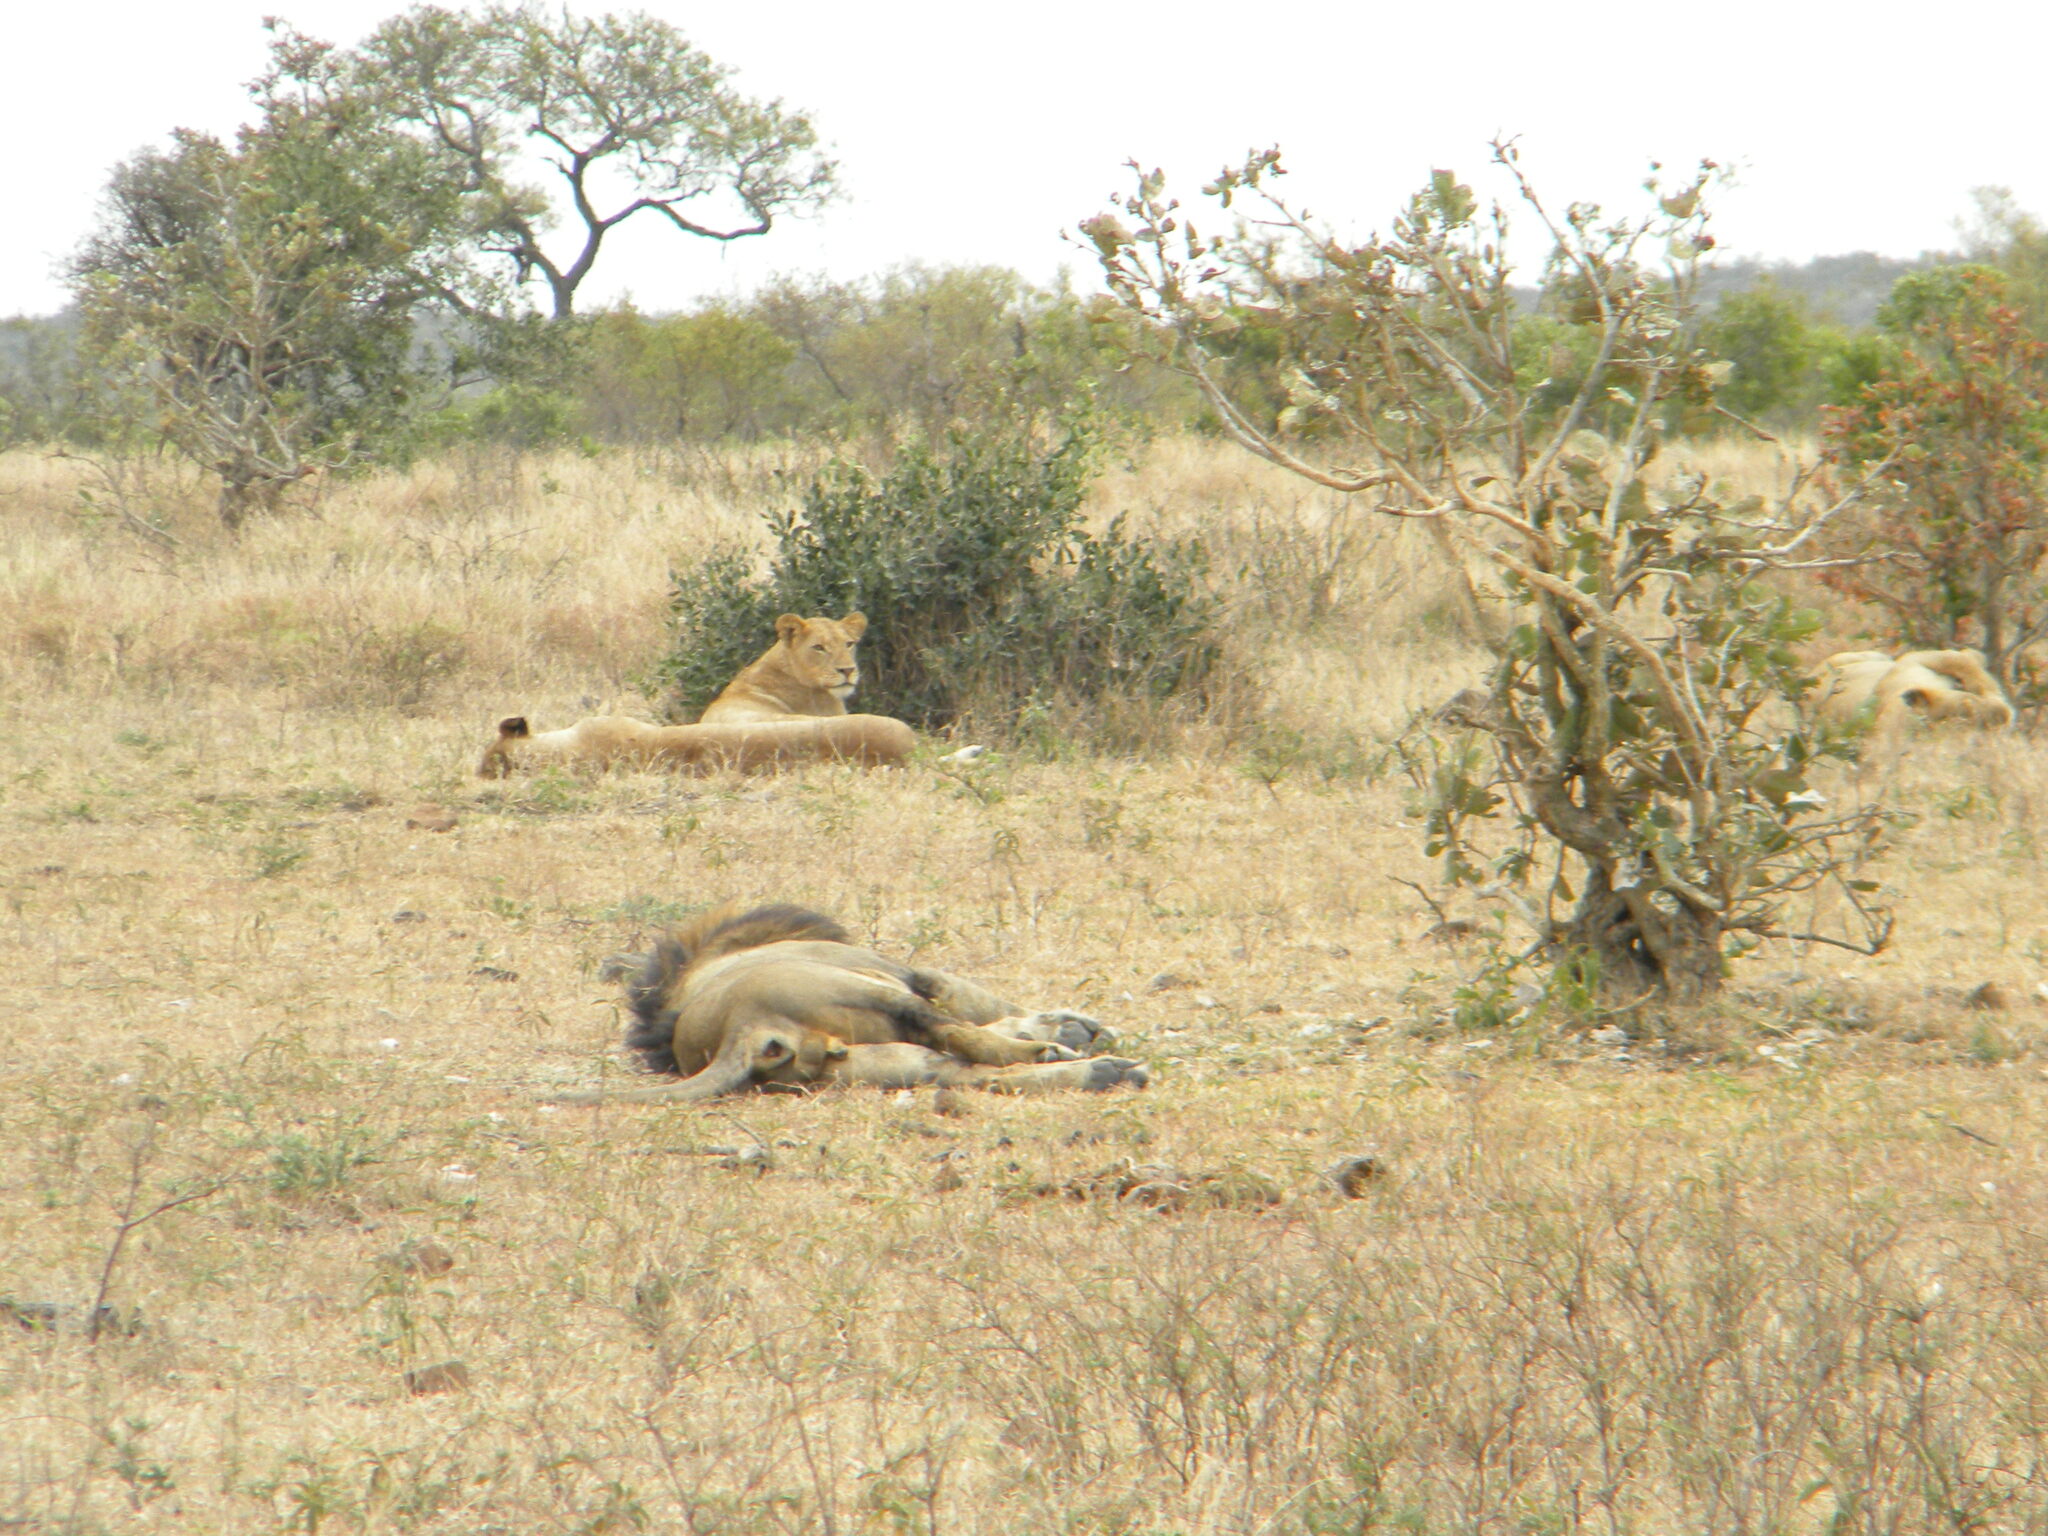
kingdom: Animalia
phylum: Chordata
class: Mammalia
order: Carnivora
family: Felidae
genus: Panthera
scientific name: Panthera leo
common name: Lion
